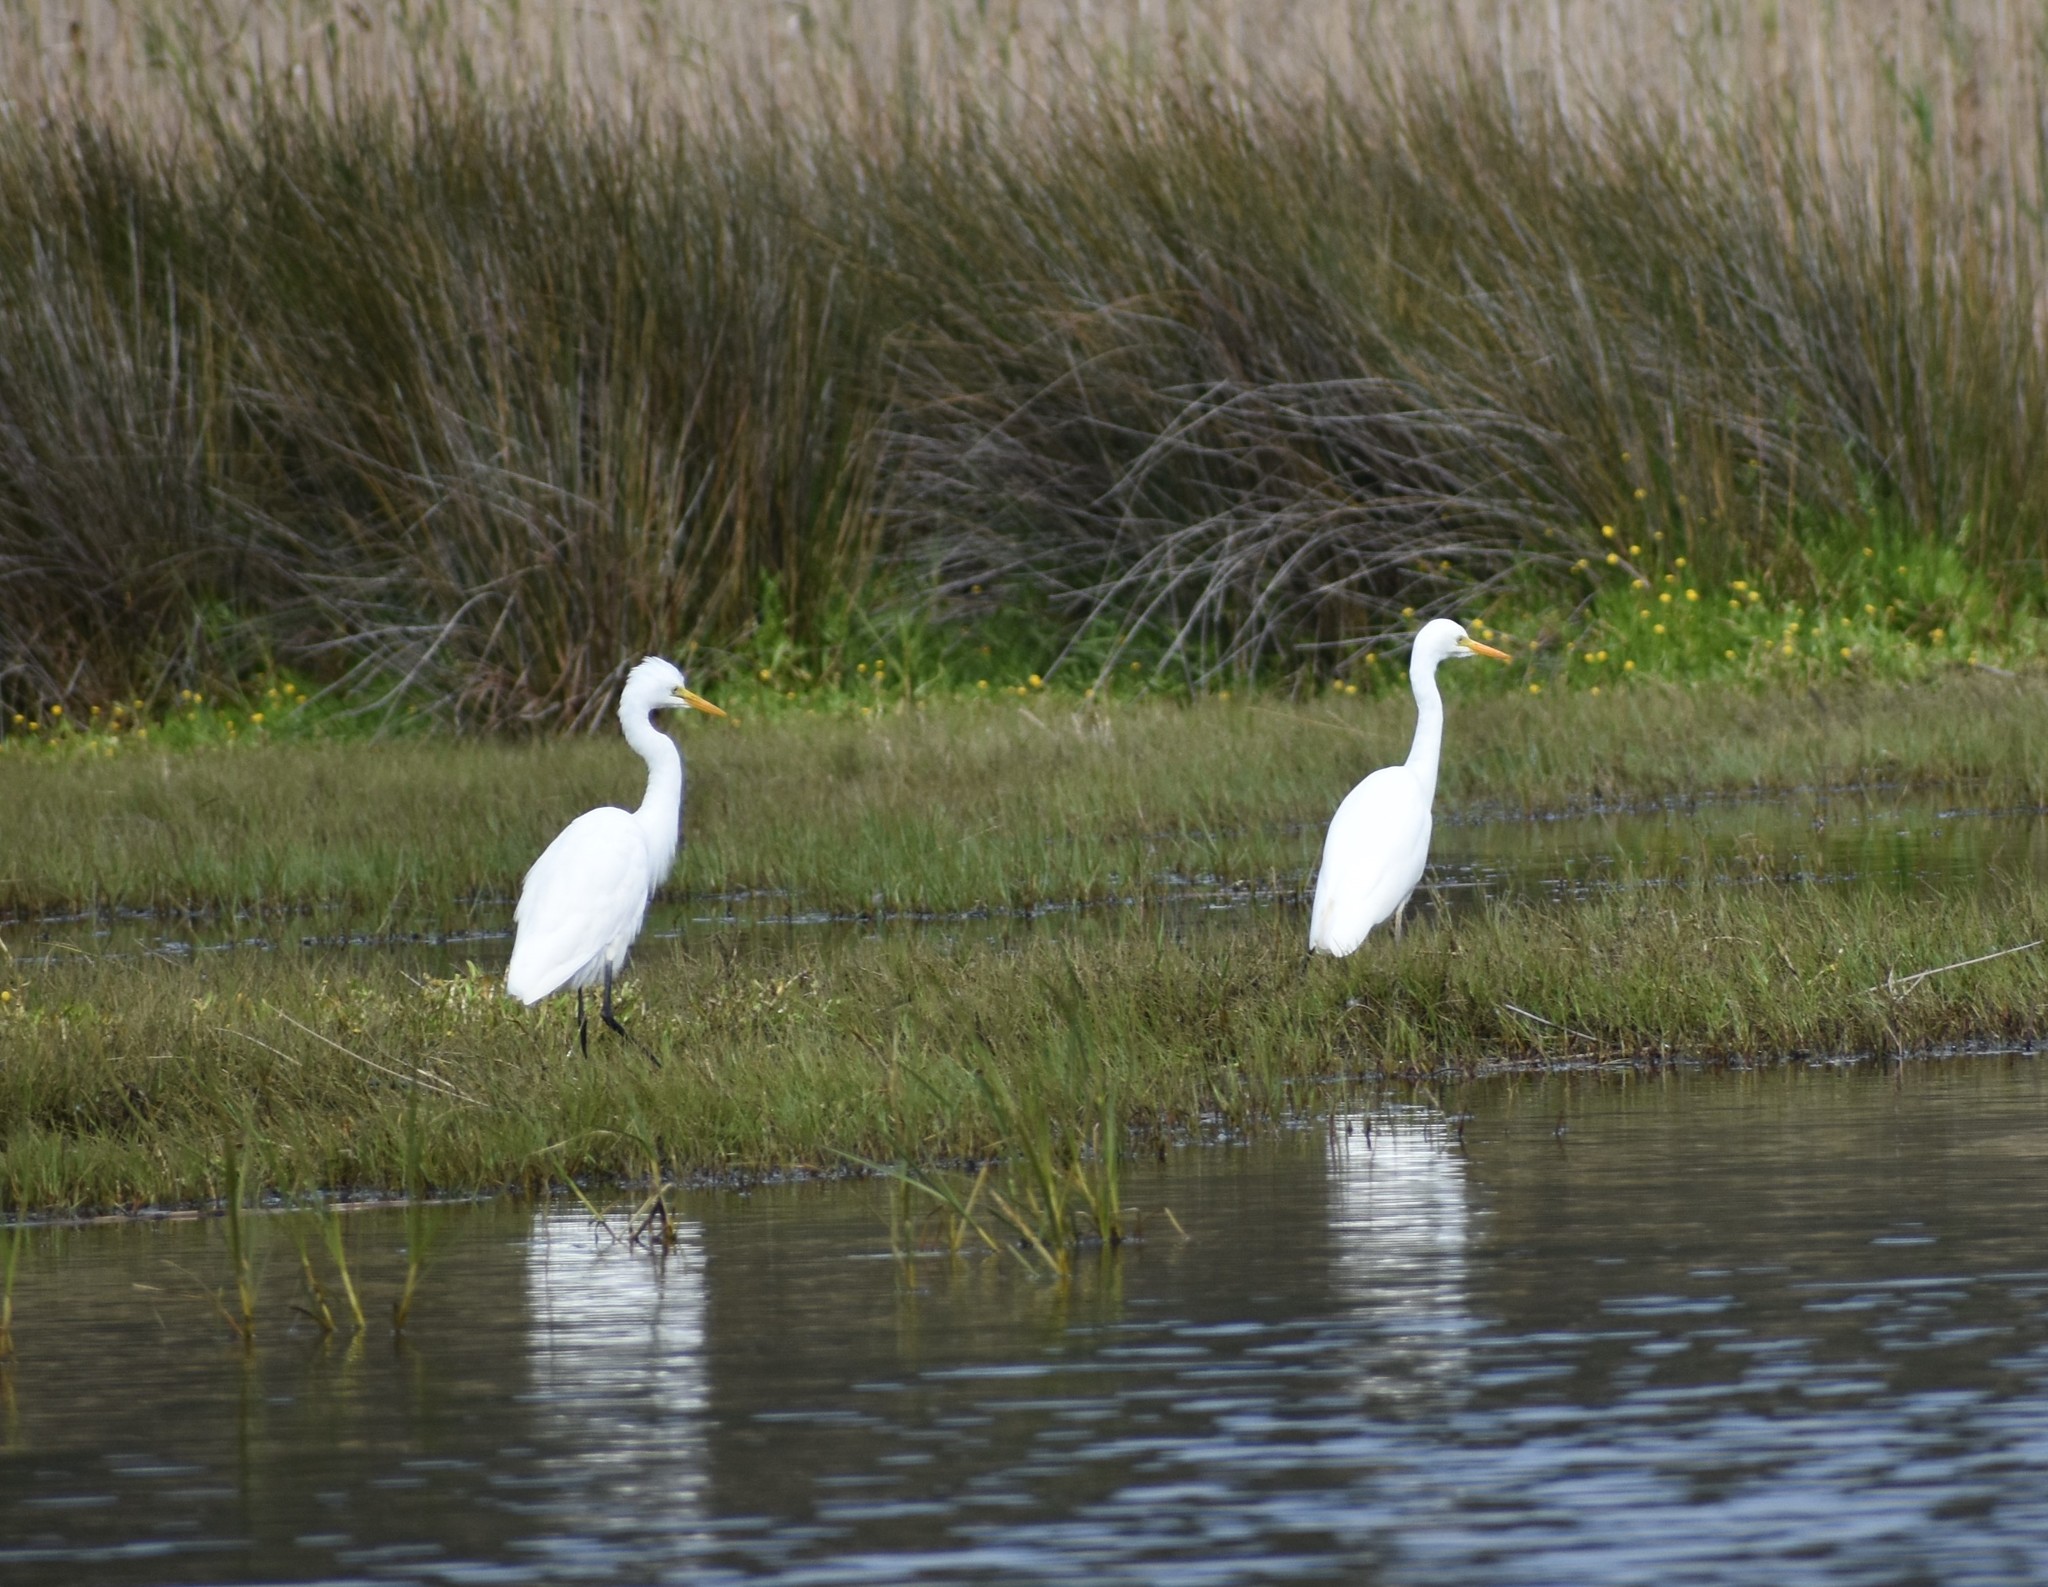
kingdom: Animalia
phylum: Chordata
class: Aves
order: Pelecaniformes
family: Ardeidae
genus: Egretta
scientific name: Egretta intermedia
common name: Intermediate egret
